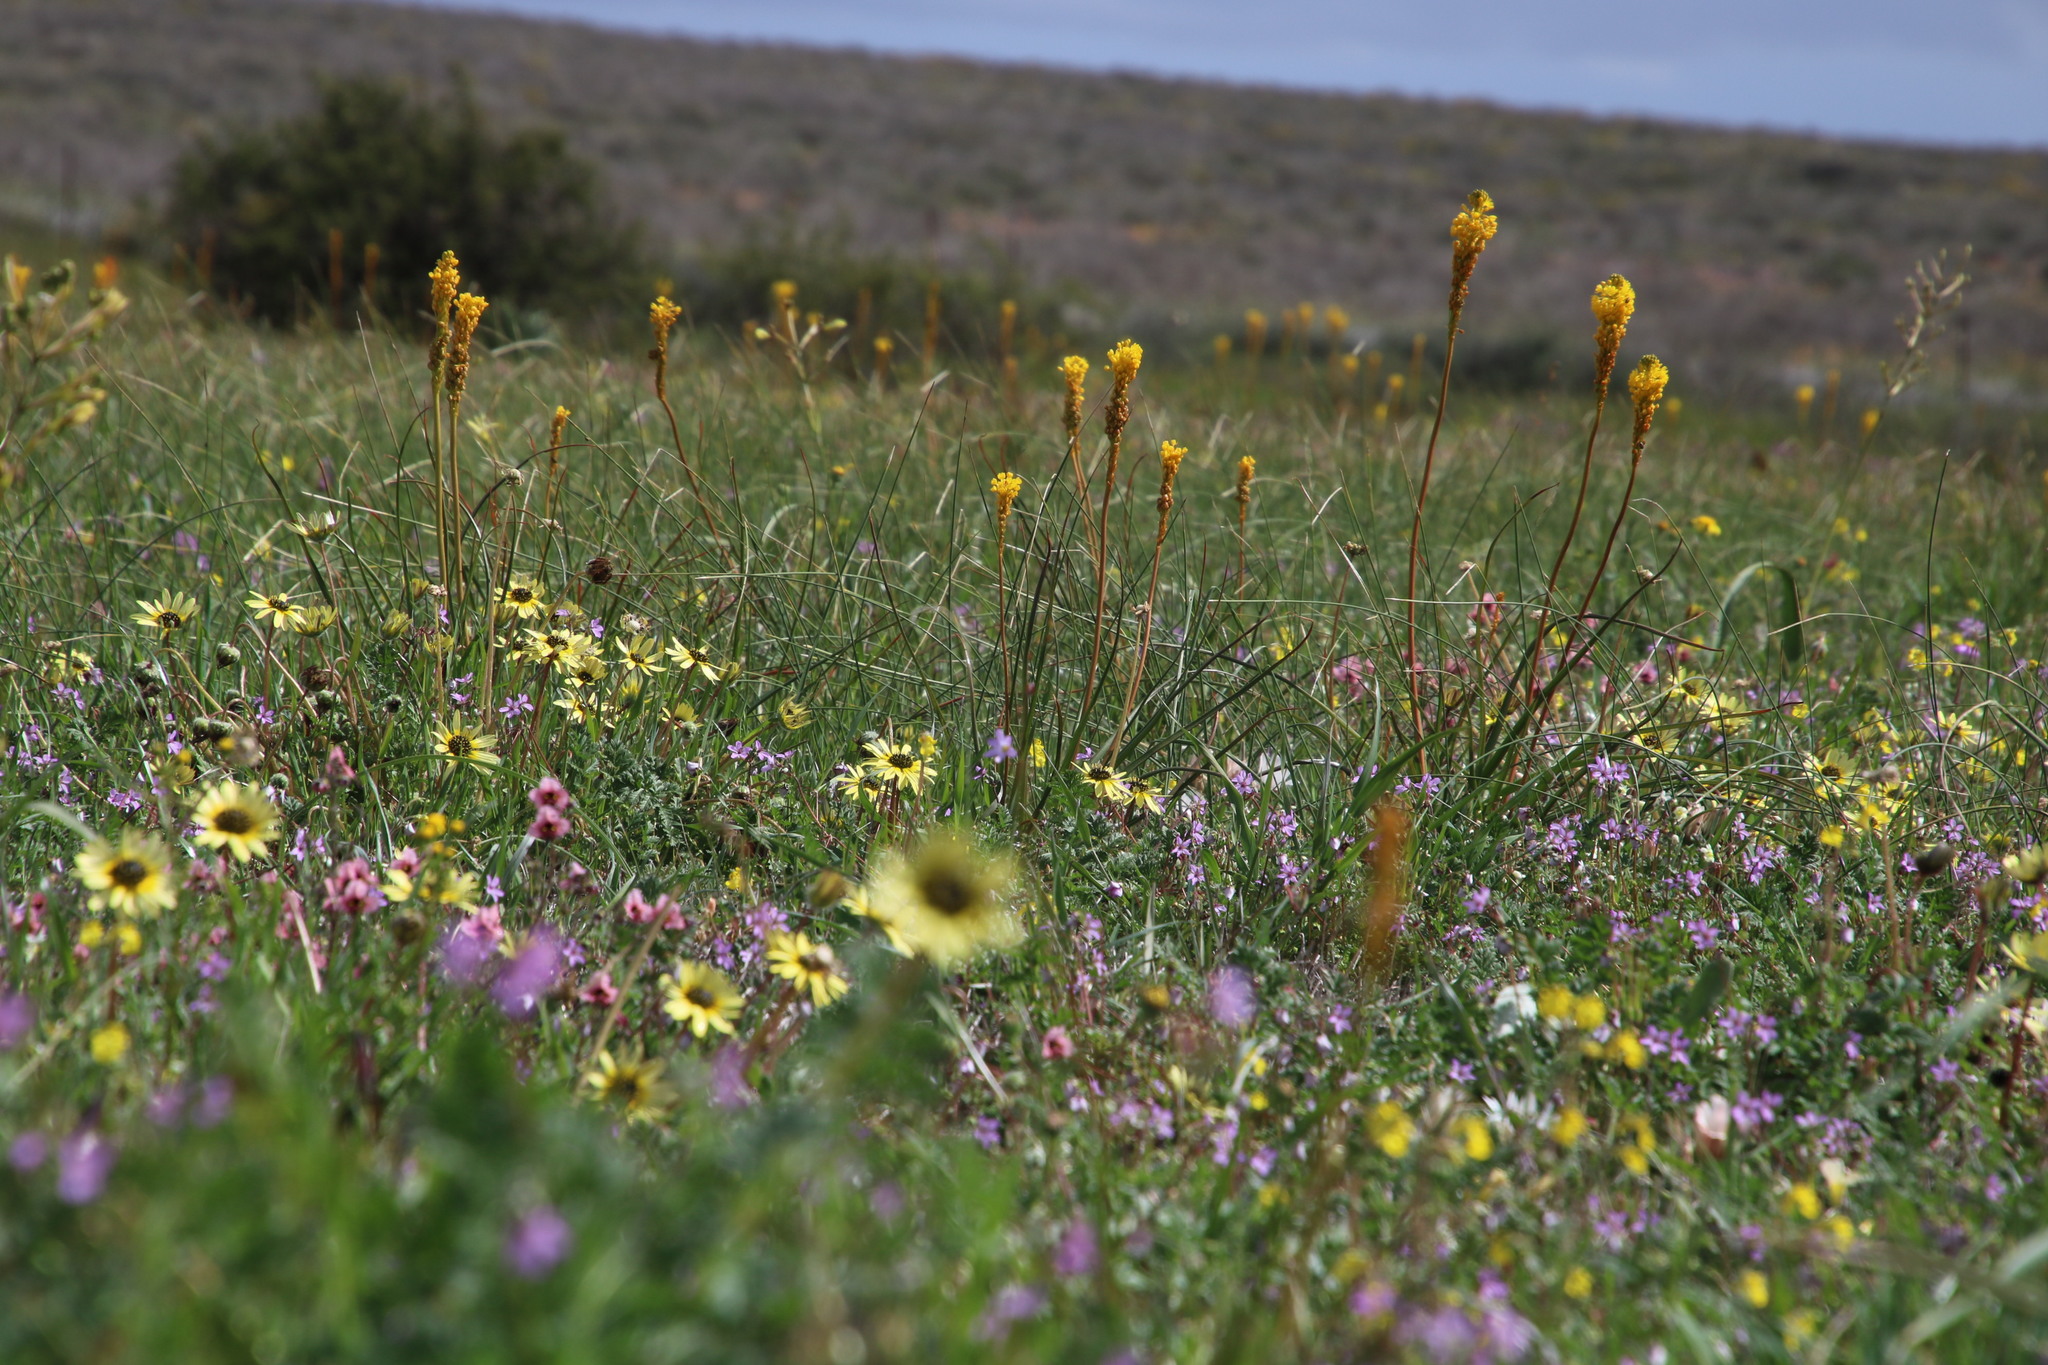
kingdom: Plantae
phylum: Tracheophyta
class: Liliopsida
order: Asparagales
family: Asphodelaceae
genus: Bulbinella
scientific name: Bulbinella nutans
